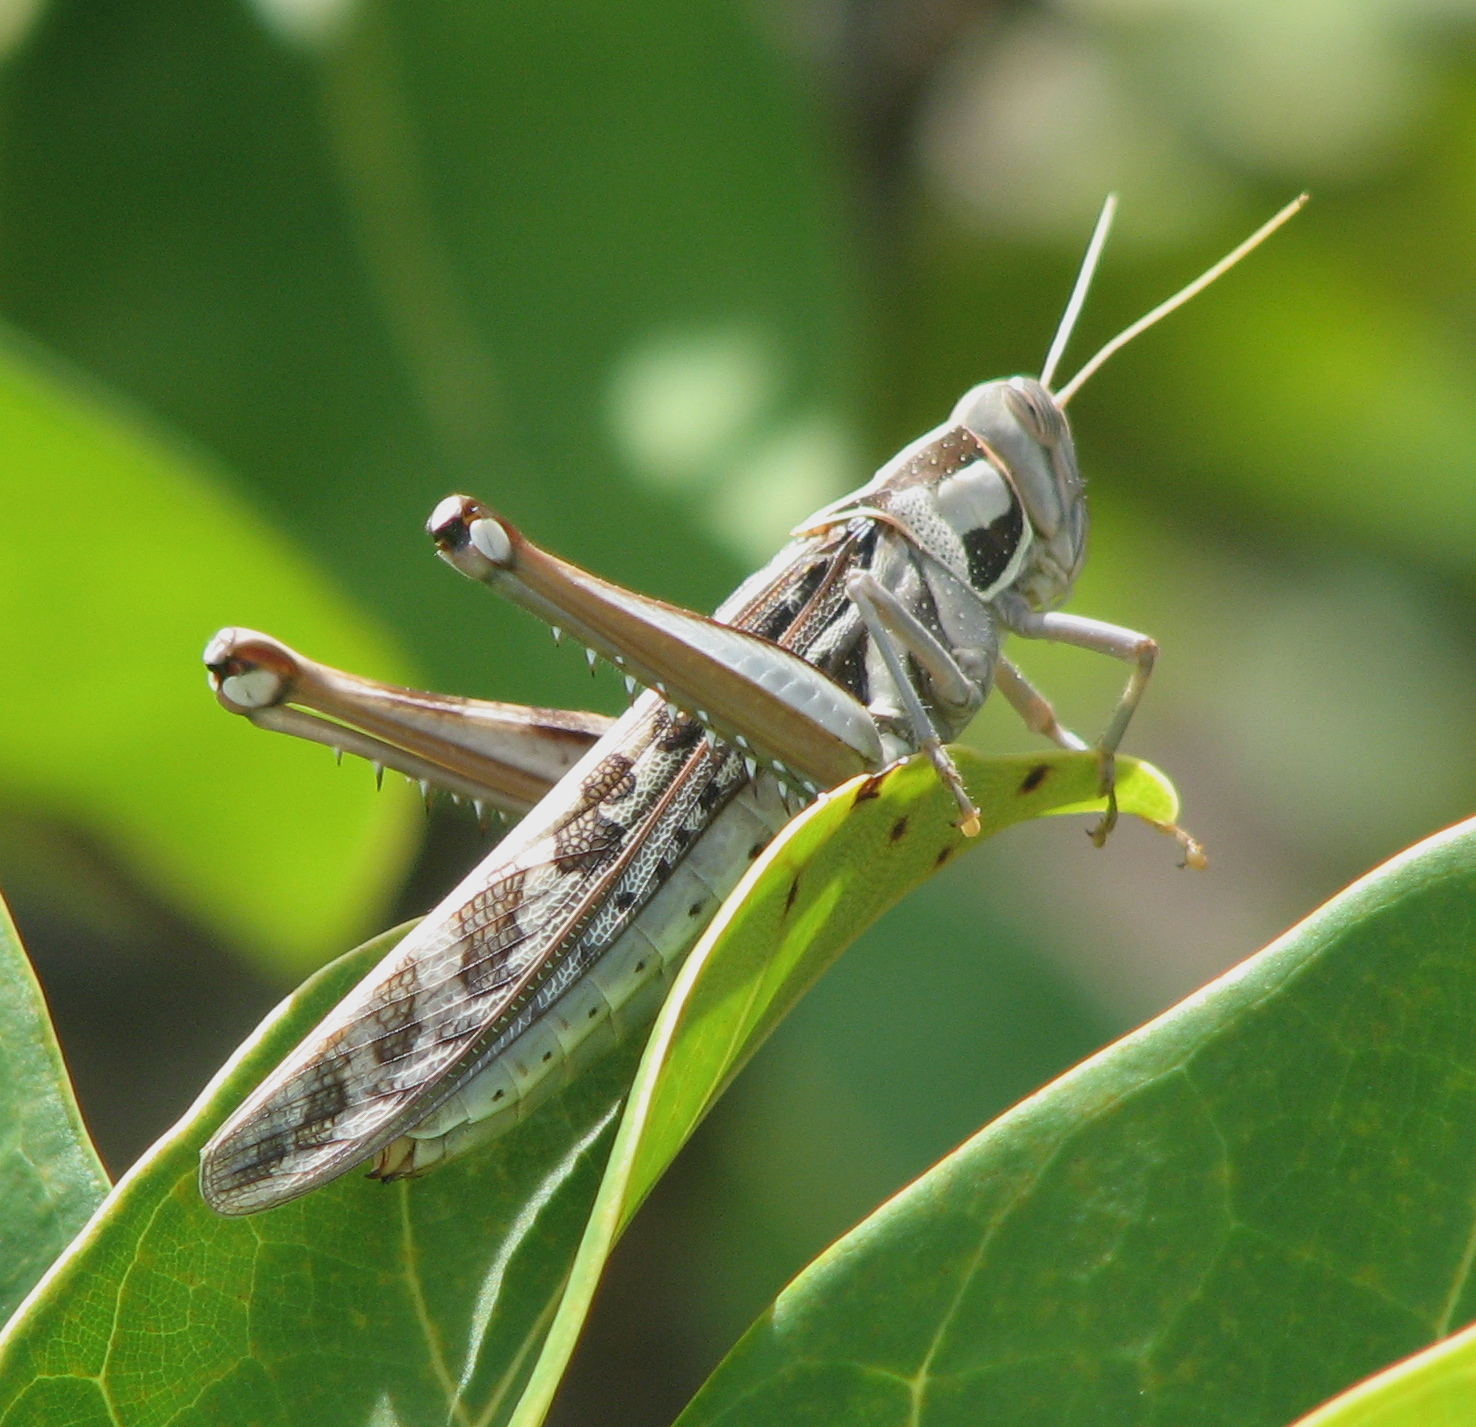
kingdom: Animalia
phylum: Arthropoda
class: Insecta
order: Orthoptera
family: Acrididae
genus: Cyrtacanthacris
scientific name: Cyrtacanthacris tatarica
